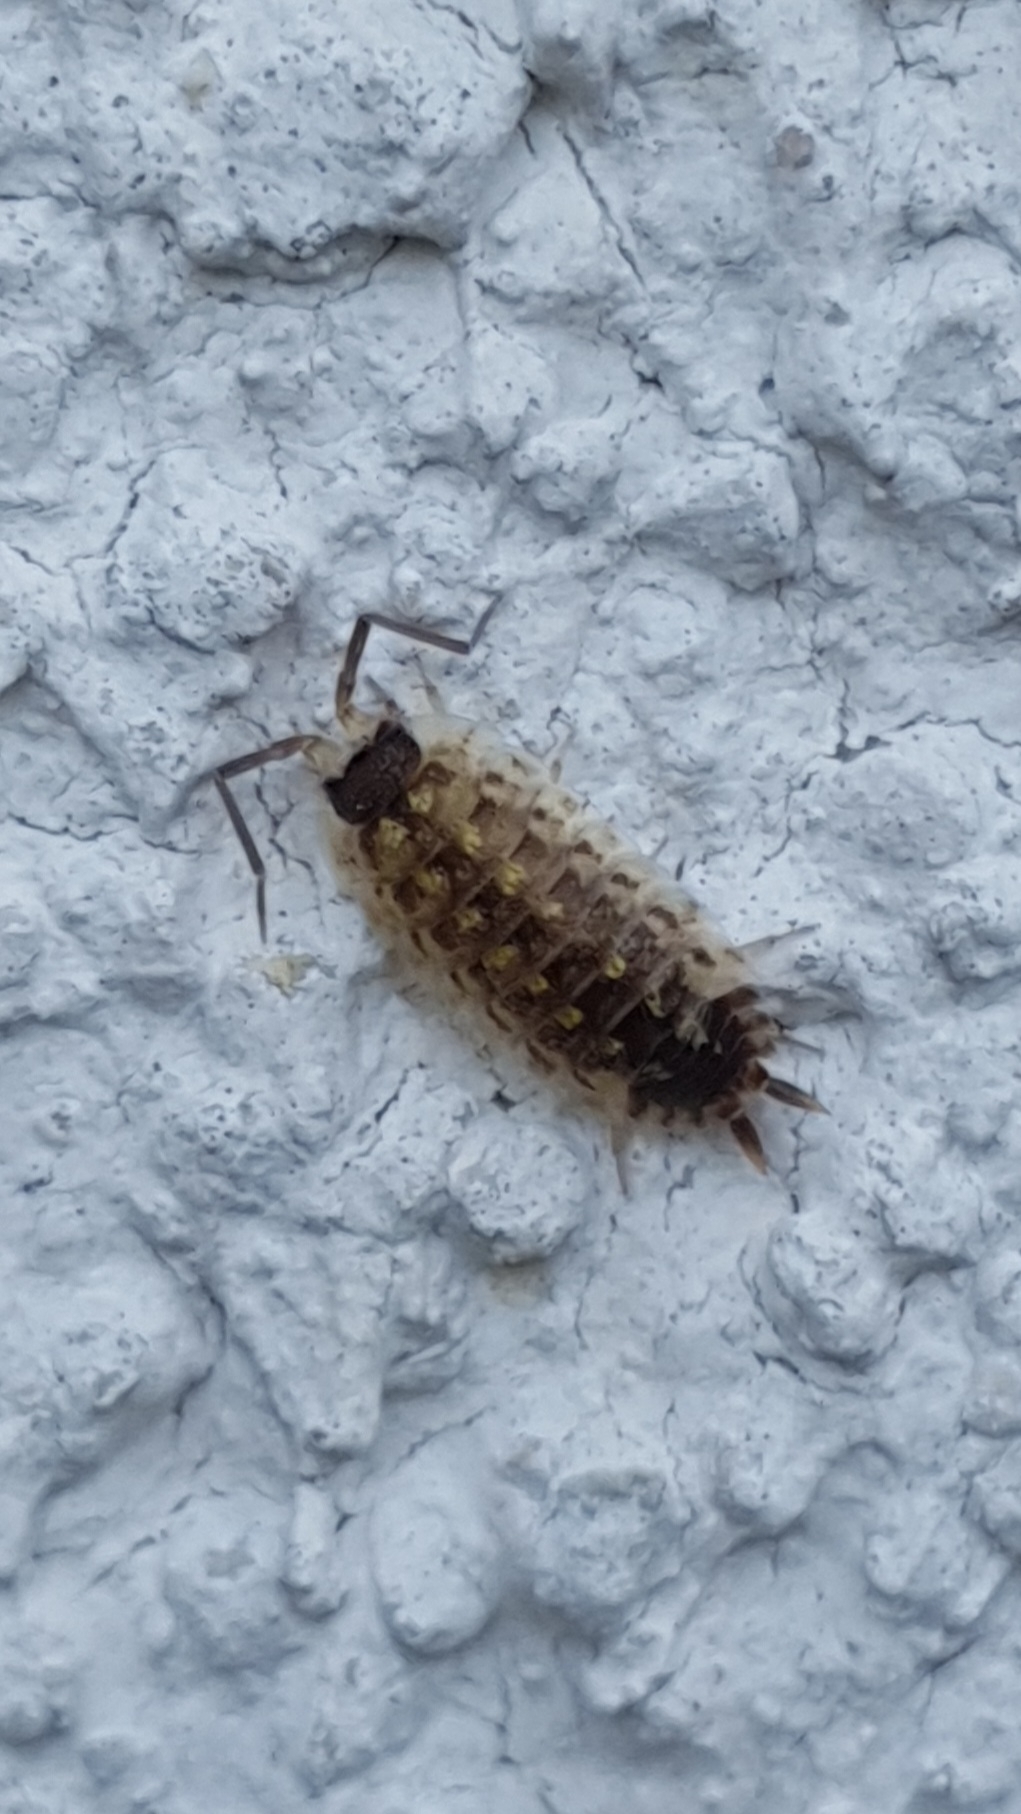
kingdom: Animalia
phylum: Arthropoda
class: Malacostraca
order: Isopoda
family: Porcellionidae
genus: Porcellio
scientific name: Porcellio spinicornis
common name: Painted woodlouse
